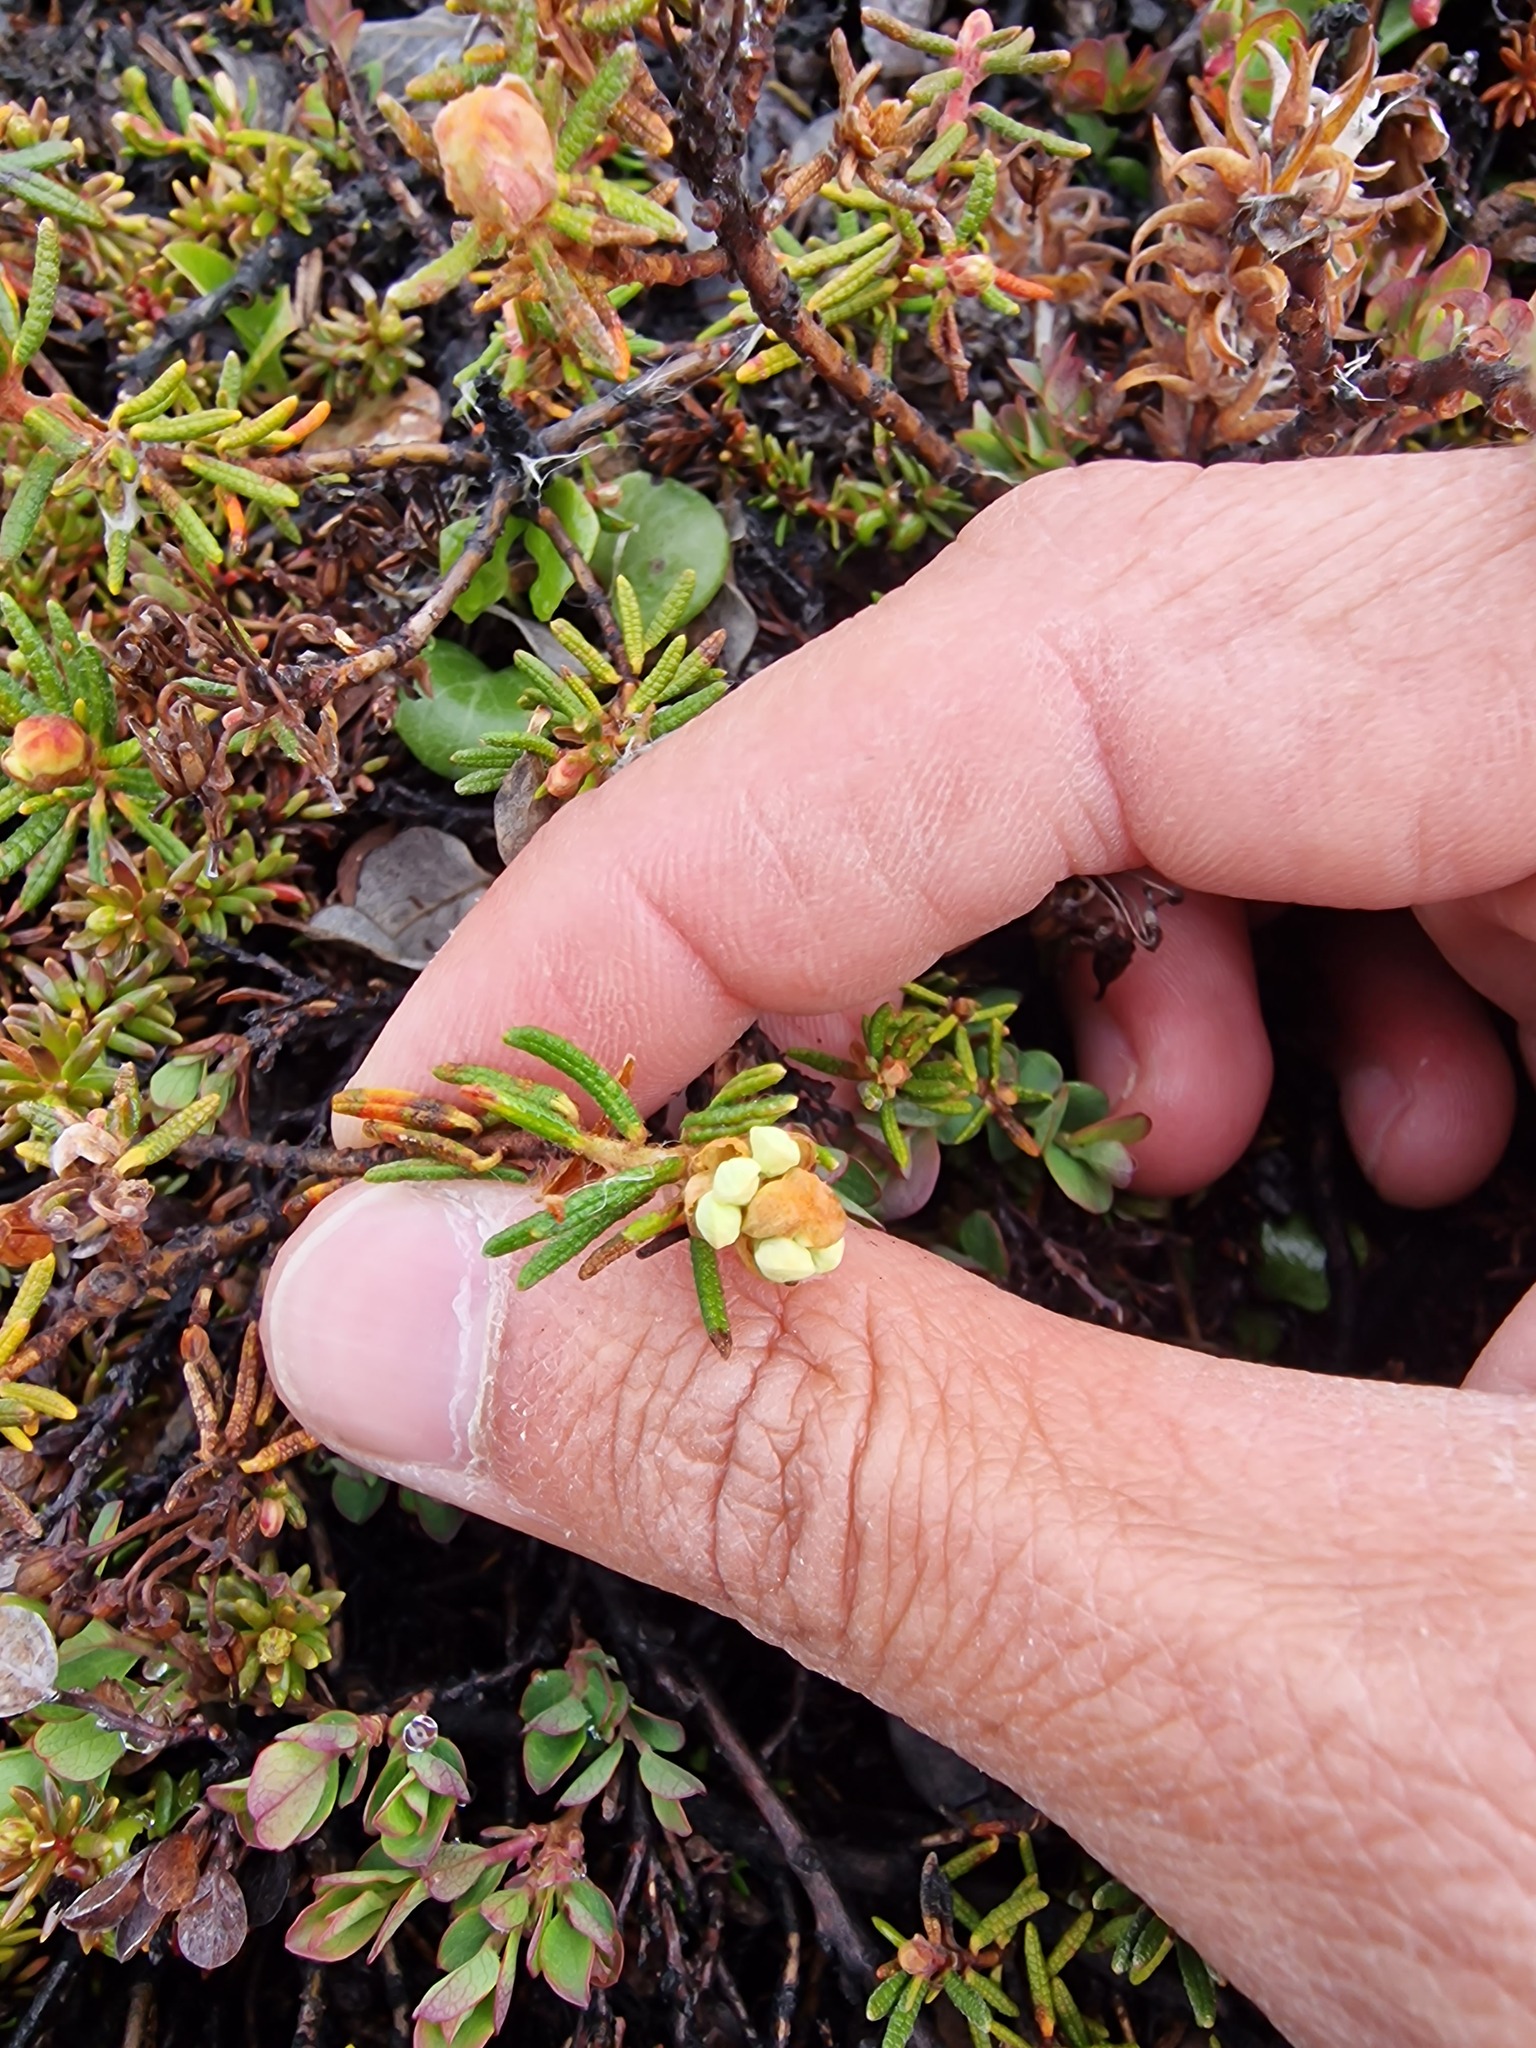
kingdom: Plantae
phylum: Tracheophyta
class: Magnoliopsida
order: Ericales
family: Ericaceae
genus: Rhododendron
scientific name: Rhododendron tomentosum
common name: Marsh labrador tea
